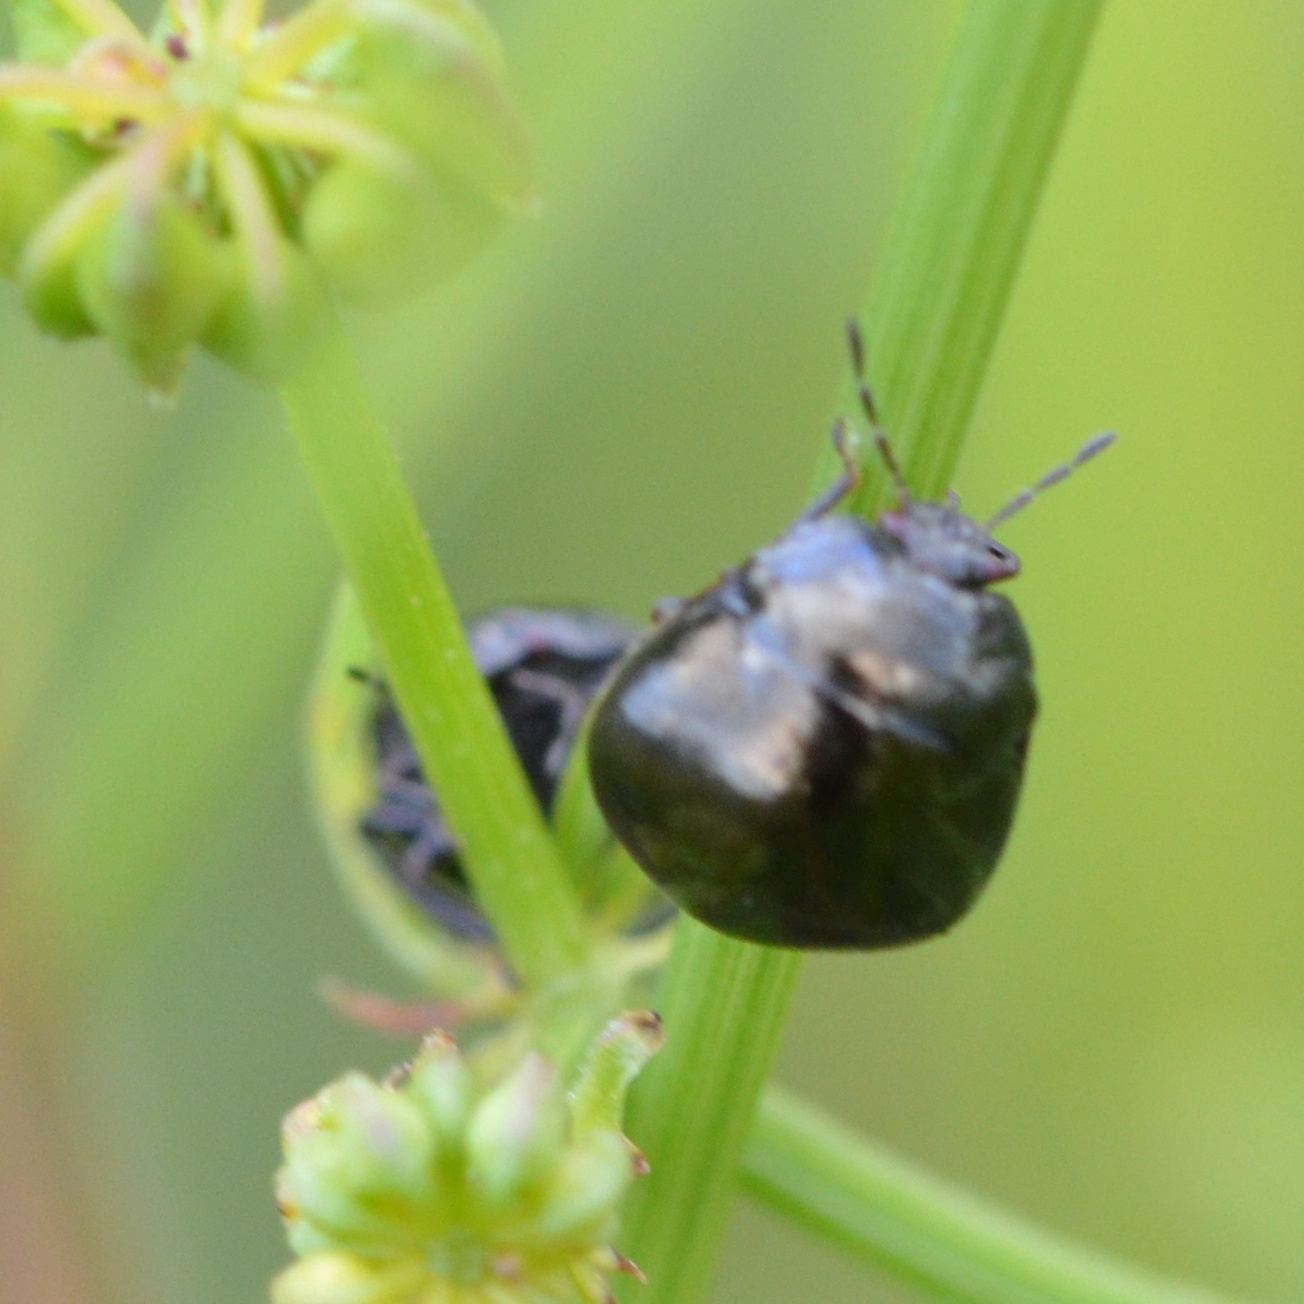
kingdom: Animalia
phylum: Arthropoda
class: Insecta
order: Hemiptera
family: Plataspidae
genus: Coptosoma
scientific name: Coptosoma scutellatum
